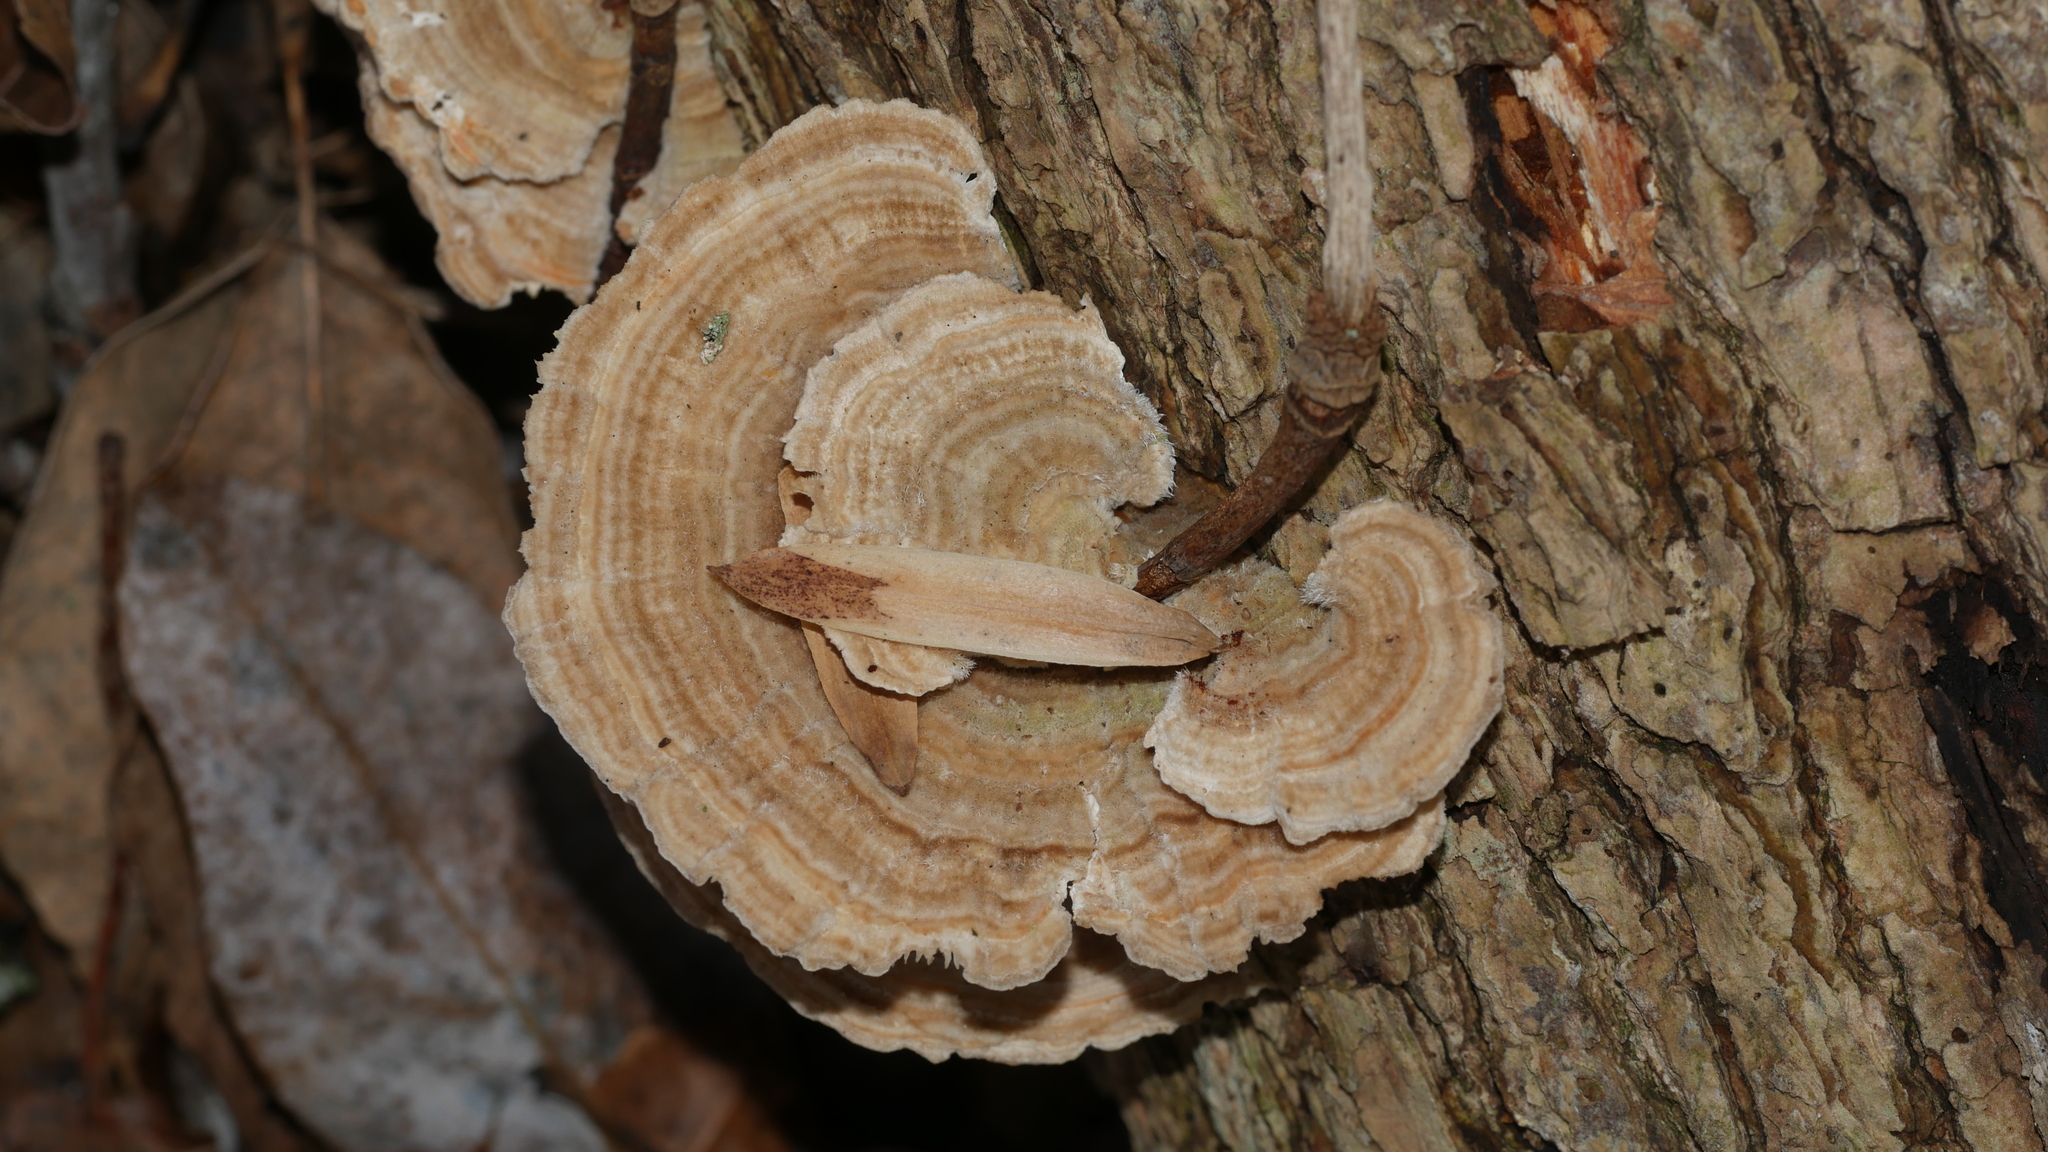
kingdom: Fungi
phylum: Basidiomycota
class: Agaricomycetes
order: Polyporales
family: Polyporaceae
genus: Lenzites
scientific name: Lenzites betulinus
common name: Birch mazegill
